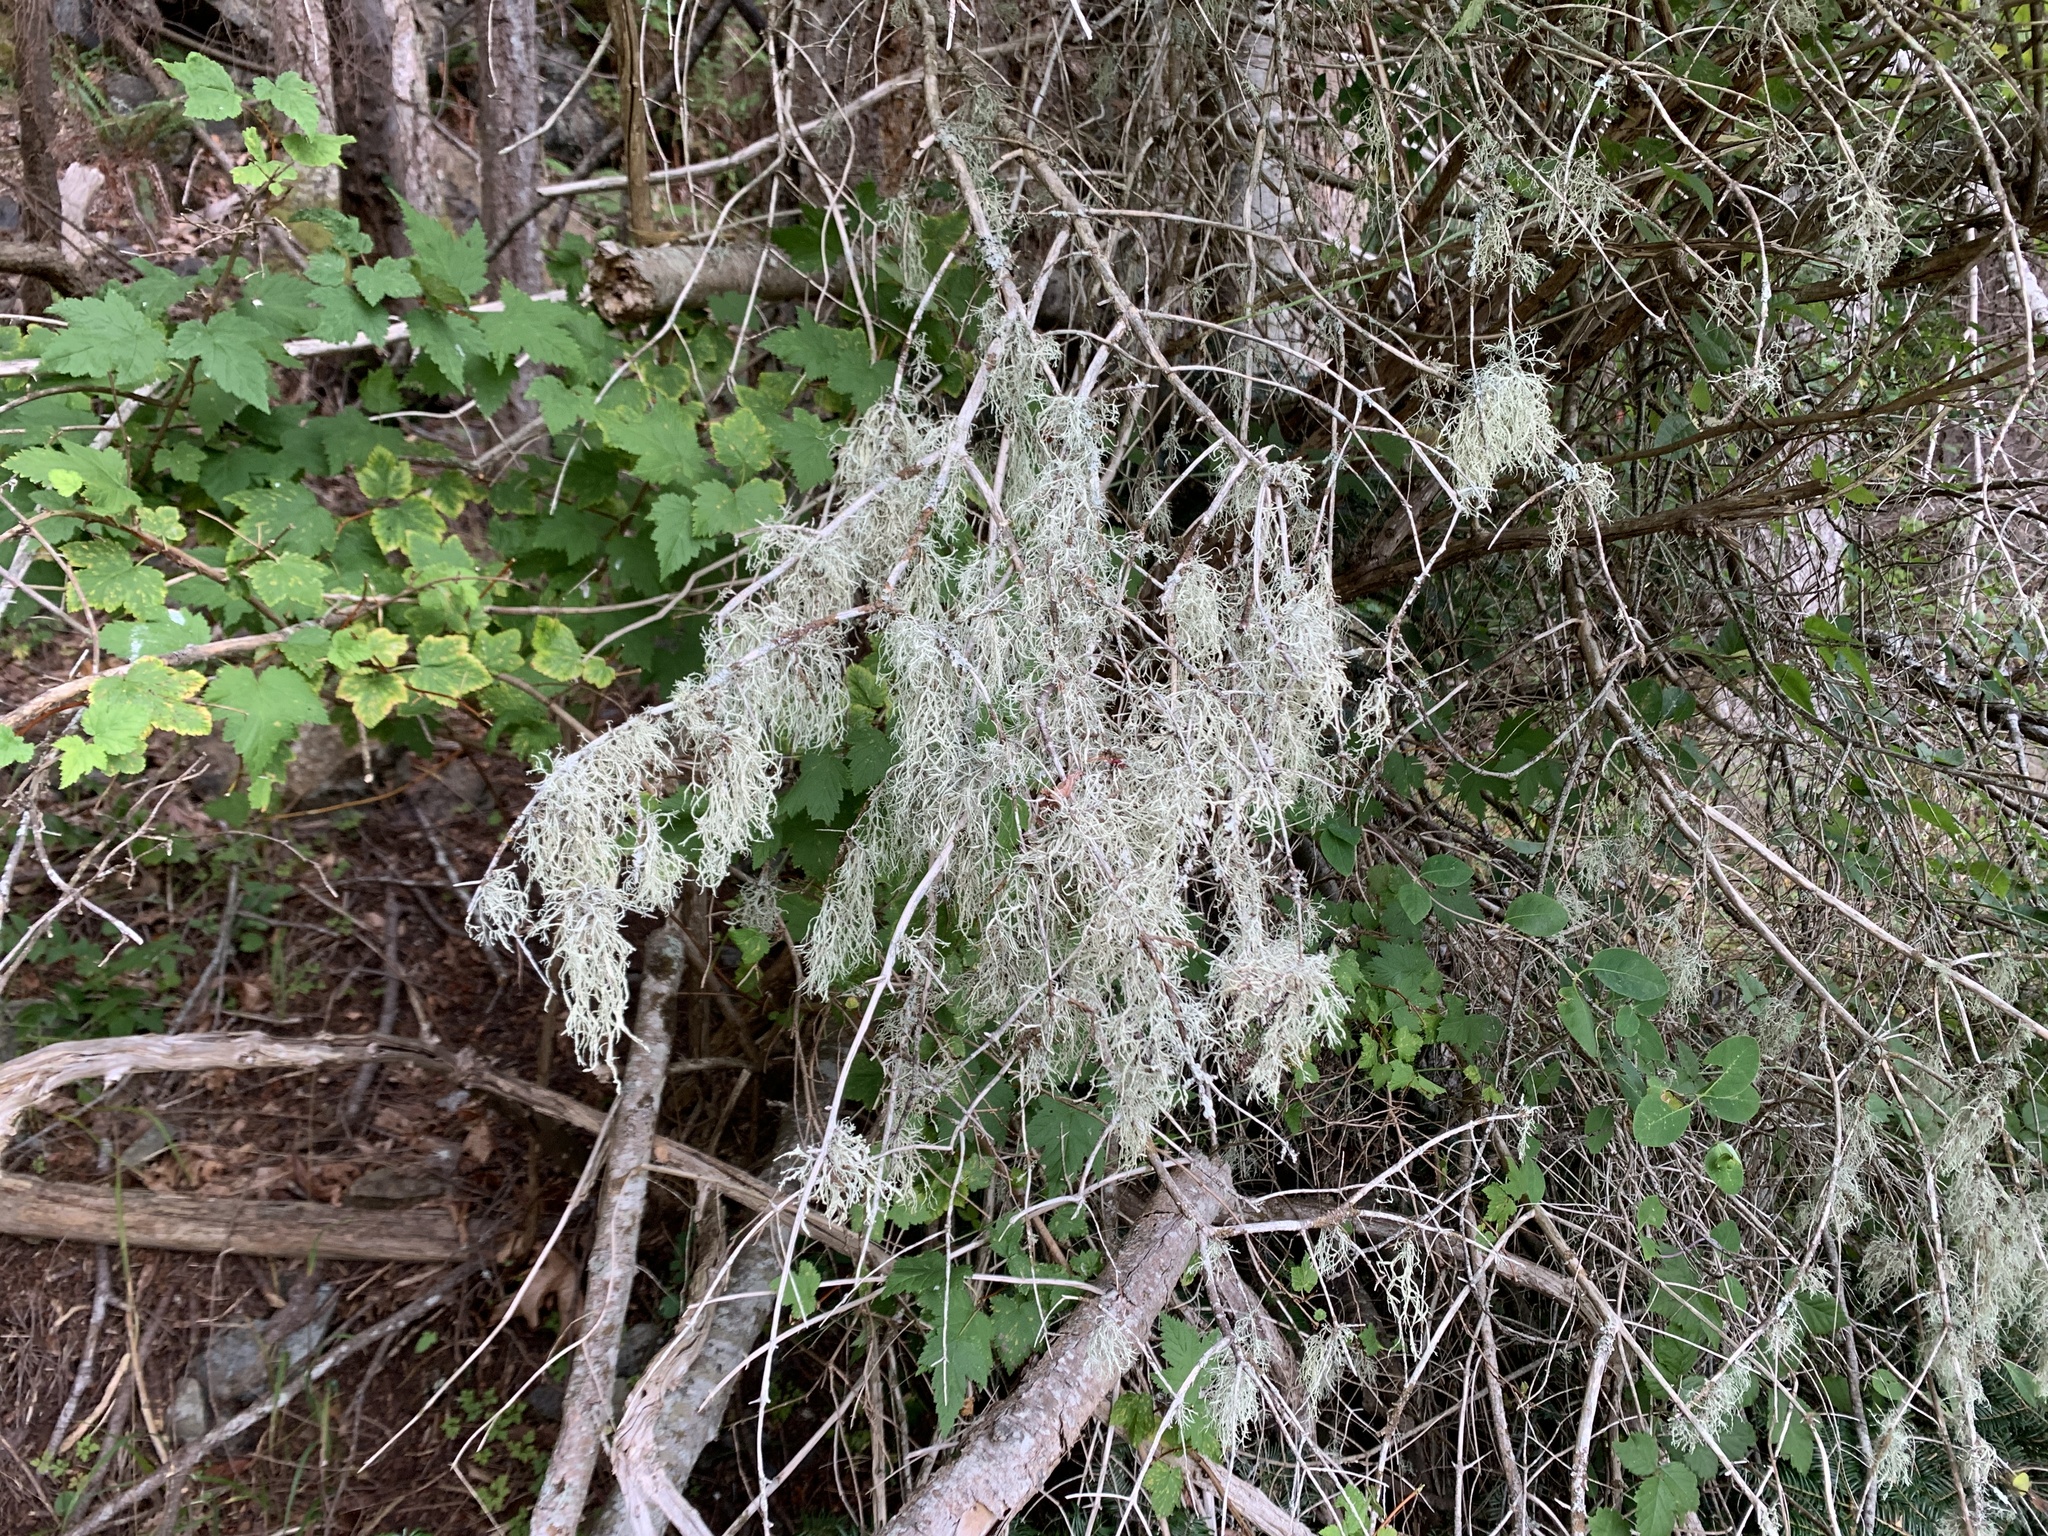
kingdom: Fungi
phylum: Ascomycota
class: Lecanoromycetes
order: Lecanorales
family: Ramalinaceae
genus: Ramalina
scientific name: Ramalina farinacea
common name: Farinose cartilage lichen
